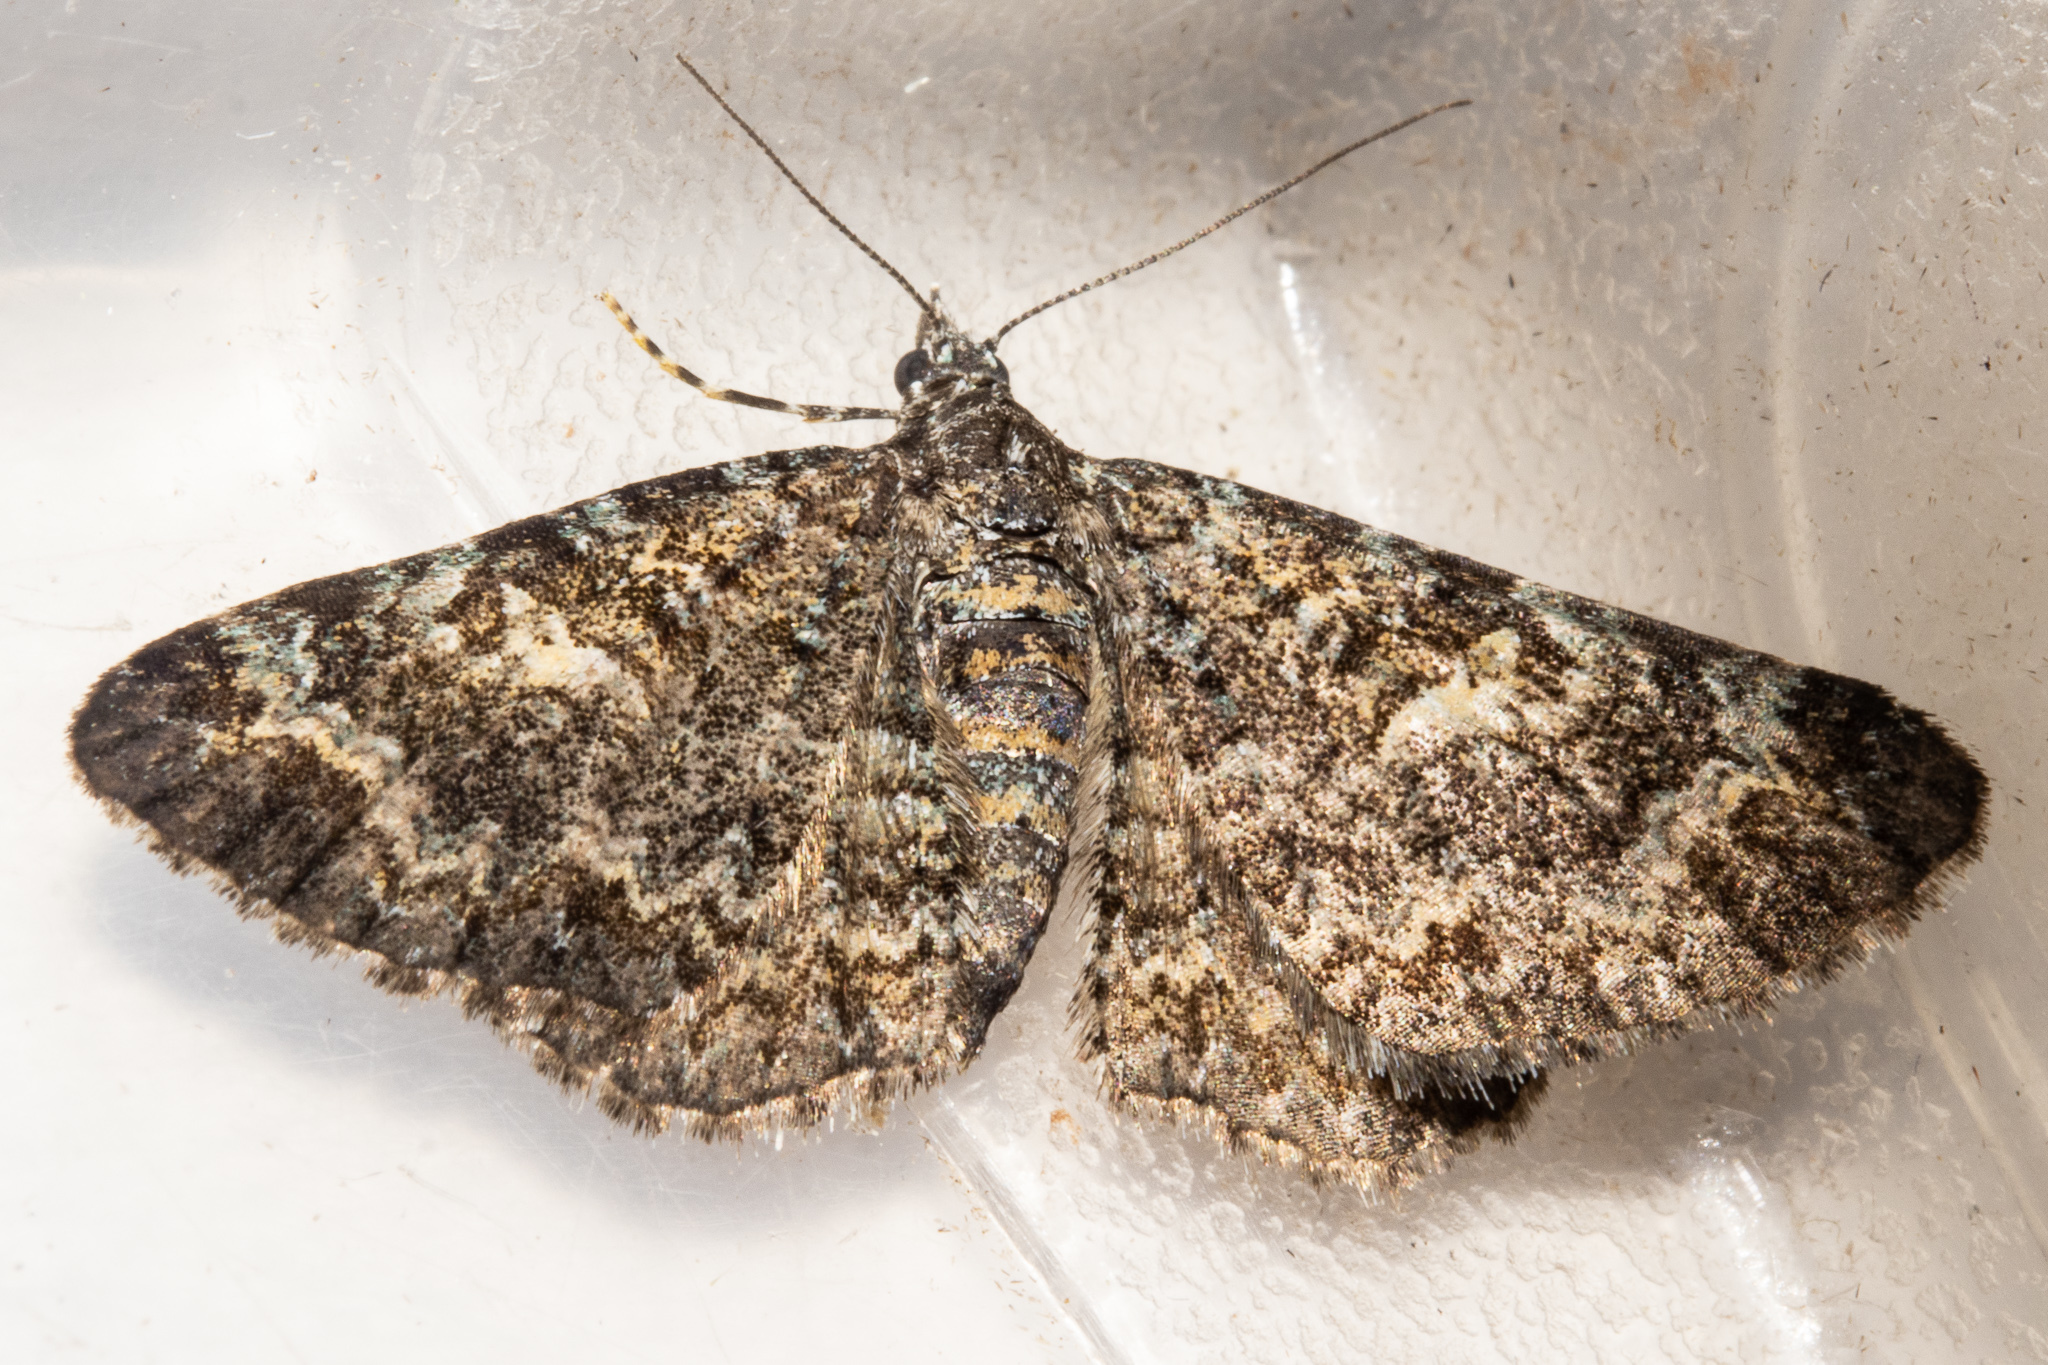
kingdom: Animalia
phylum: Arthropoda
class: Insecta
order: Lepidoptera
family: Geometridae
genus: Pasiphila
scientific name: Pasiphila rubella
